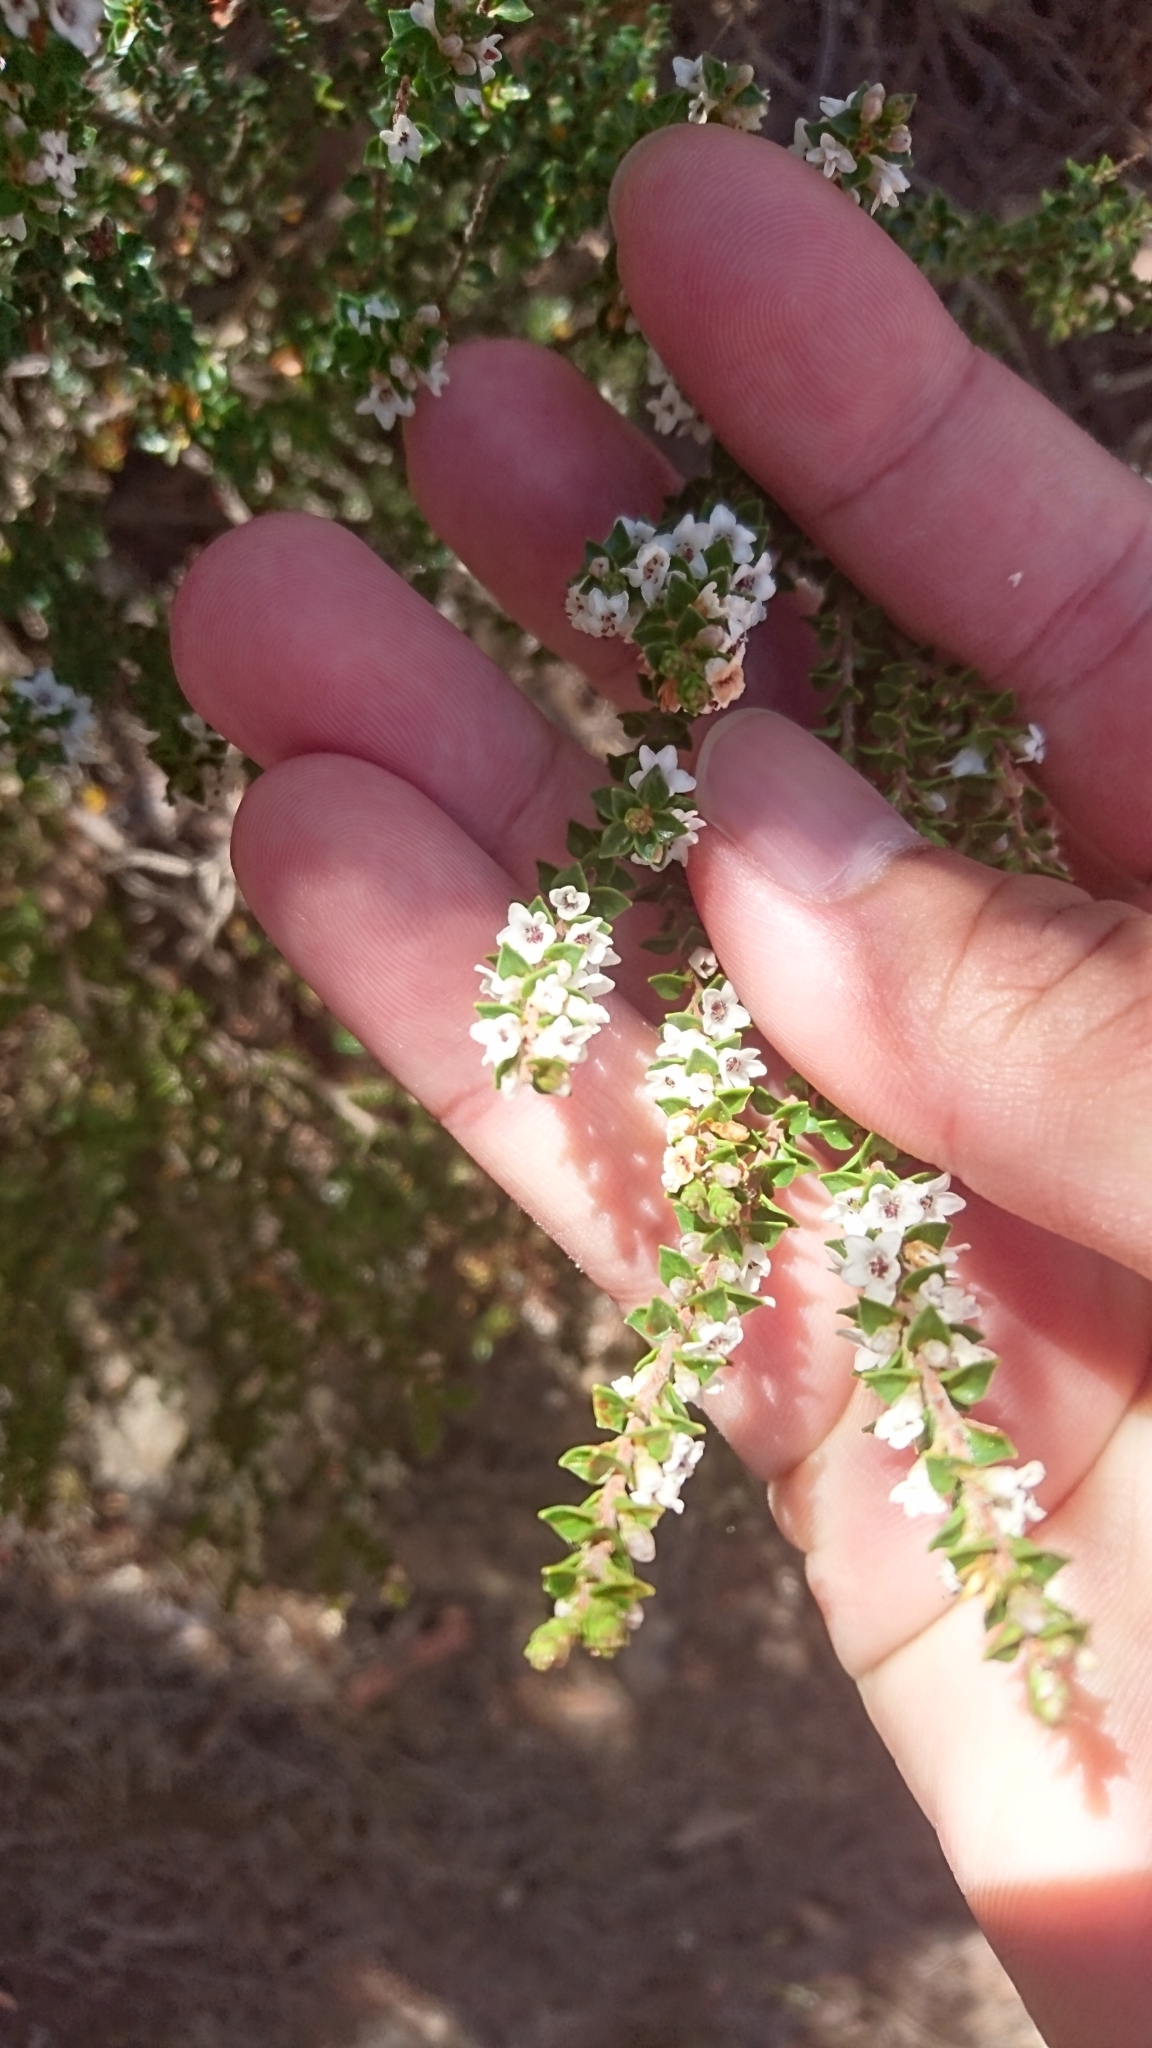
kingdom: Plantae
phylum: Tracheophyta
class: Magnoliopsida
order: Ericales
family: Ericaceae
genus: Epacris
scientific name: Epacris microphylla
